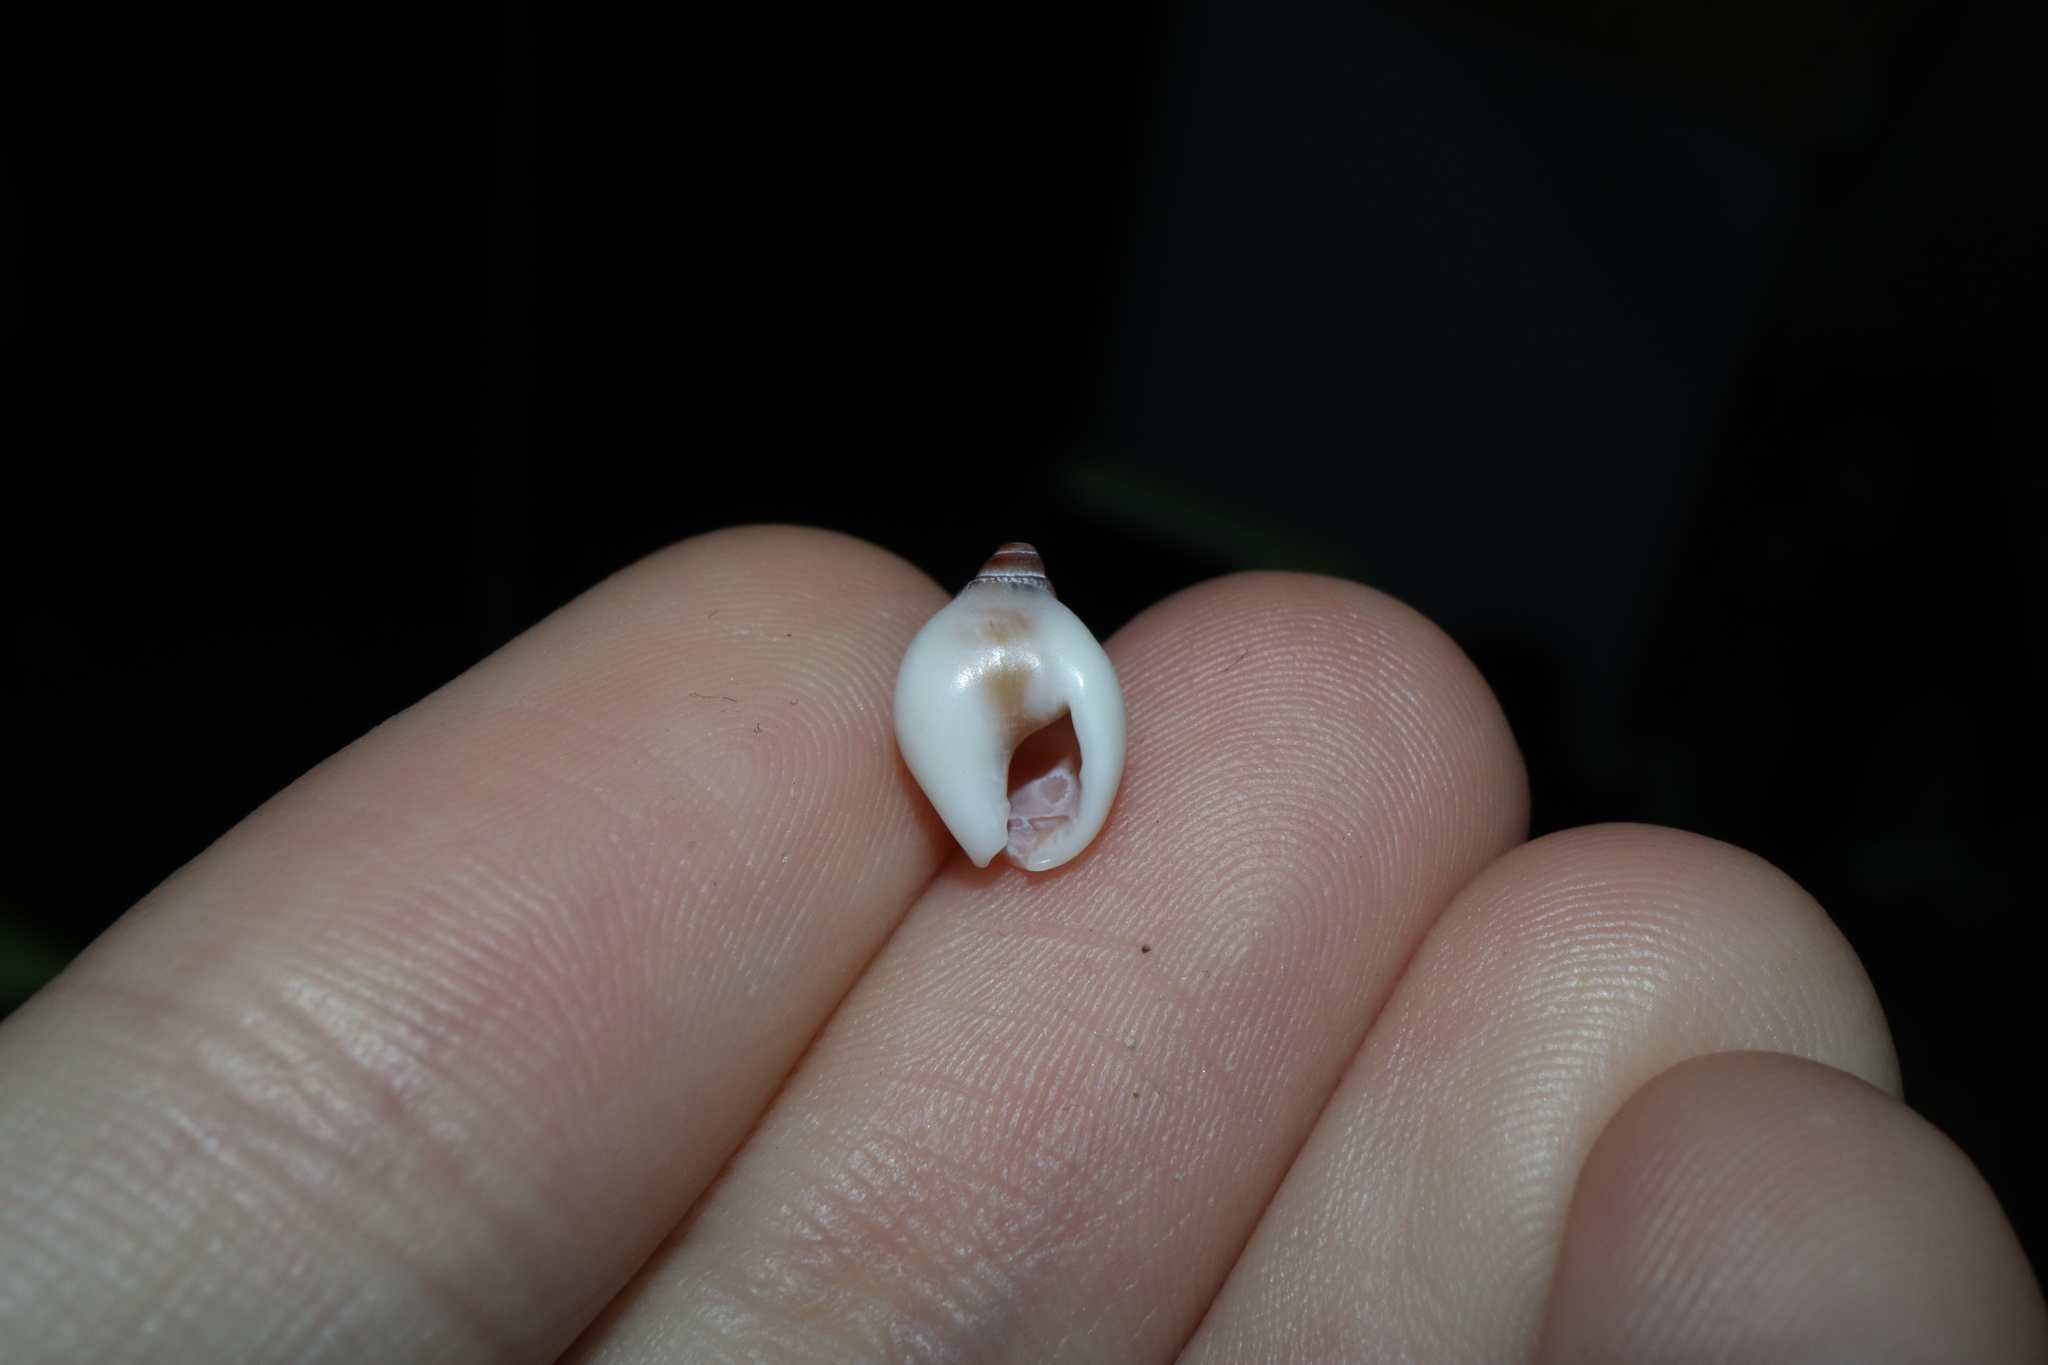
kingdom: Animalia
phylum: Mollusca
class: Gastropoda
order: Neogastropoda
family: Nassariidae
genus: Nassarius
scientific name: Nassarius pullus
